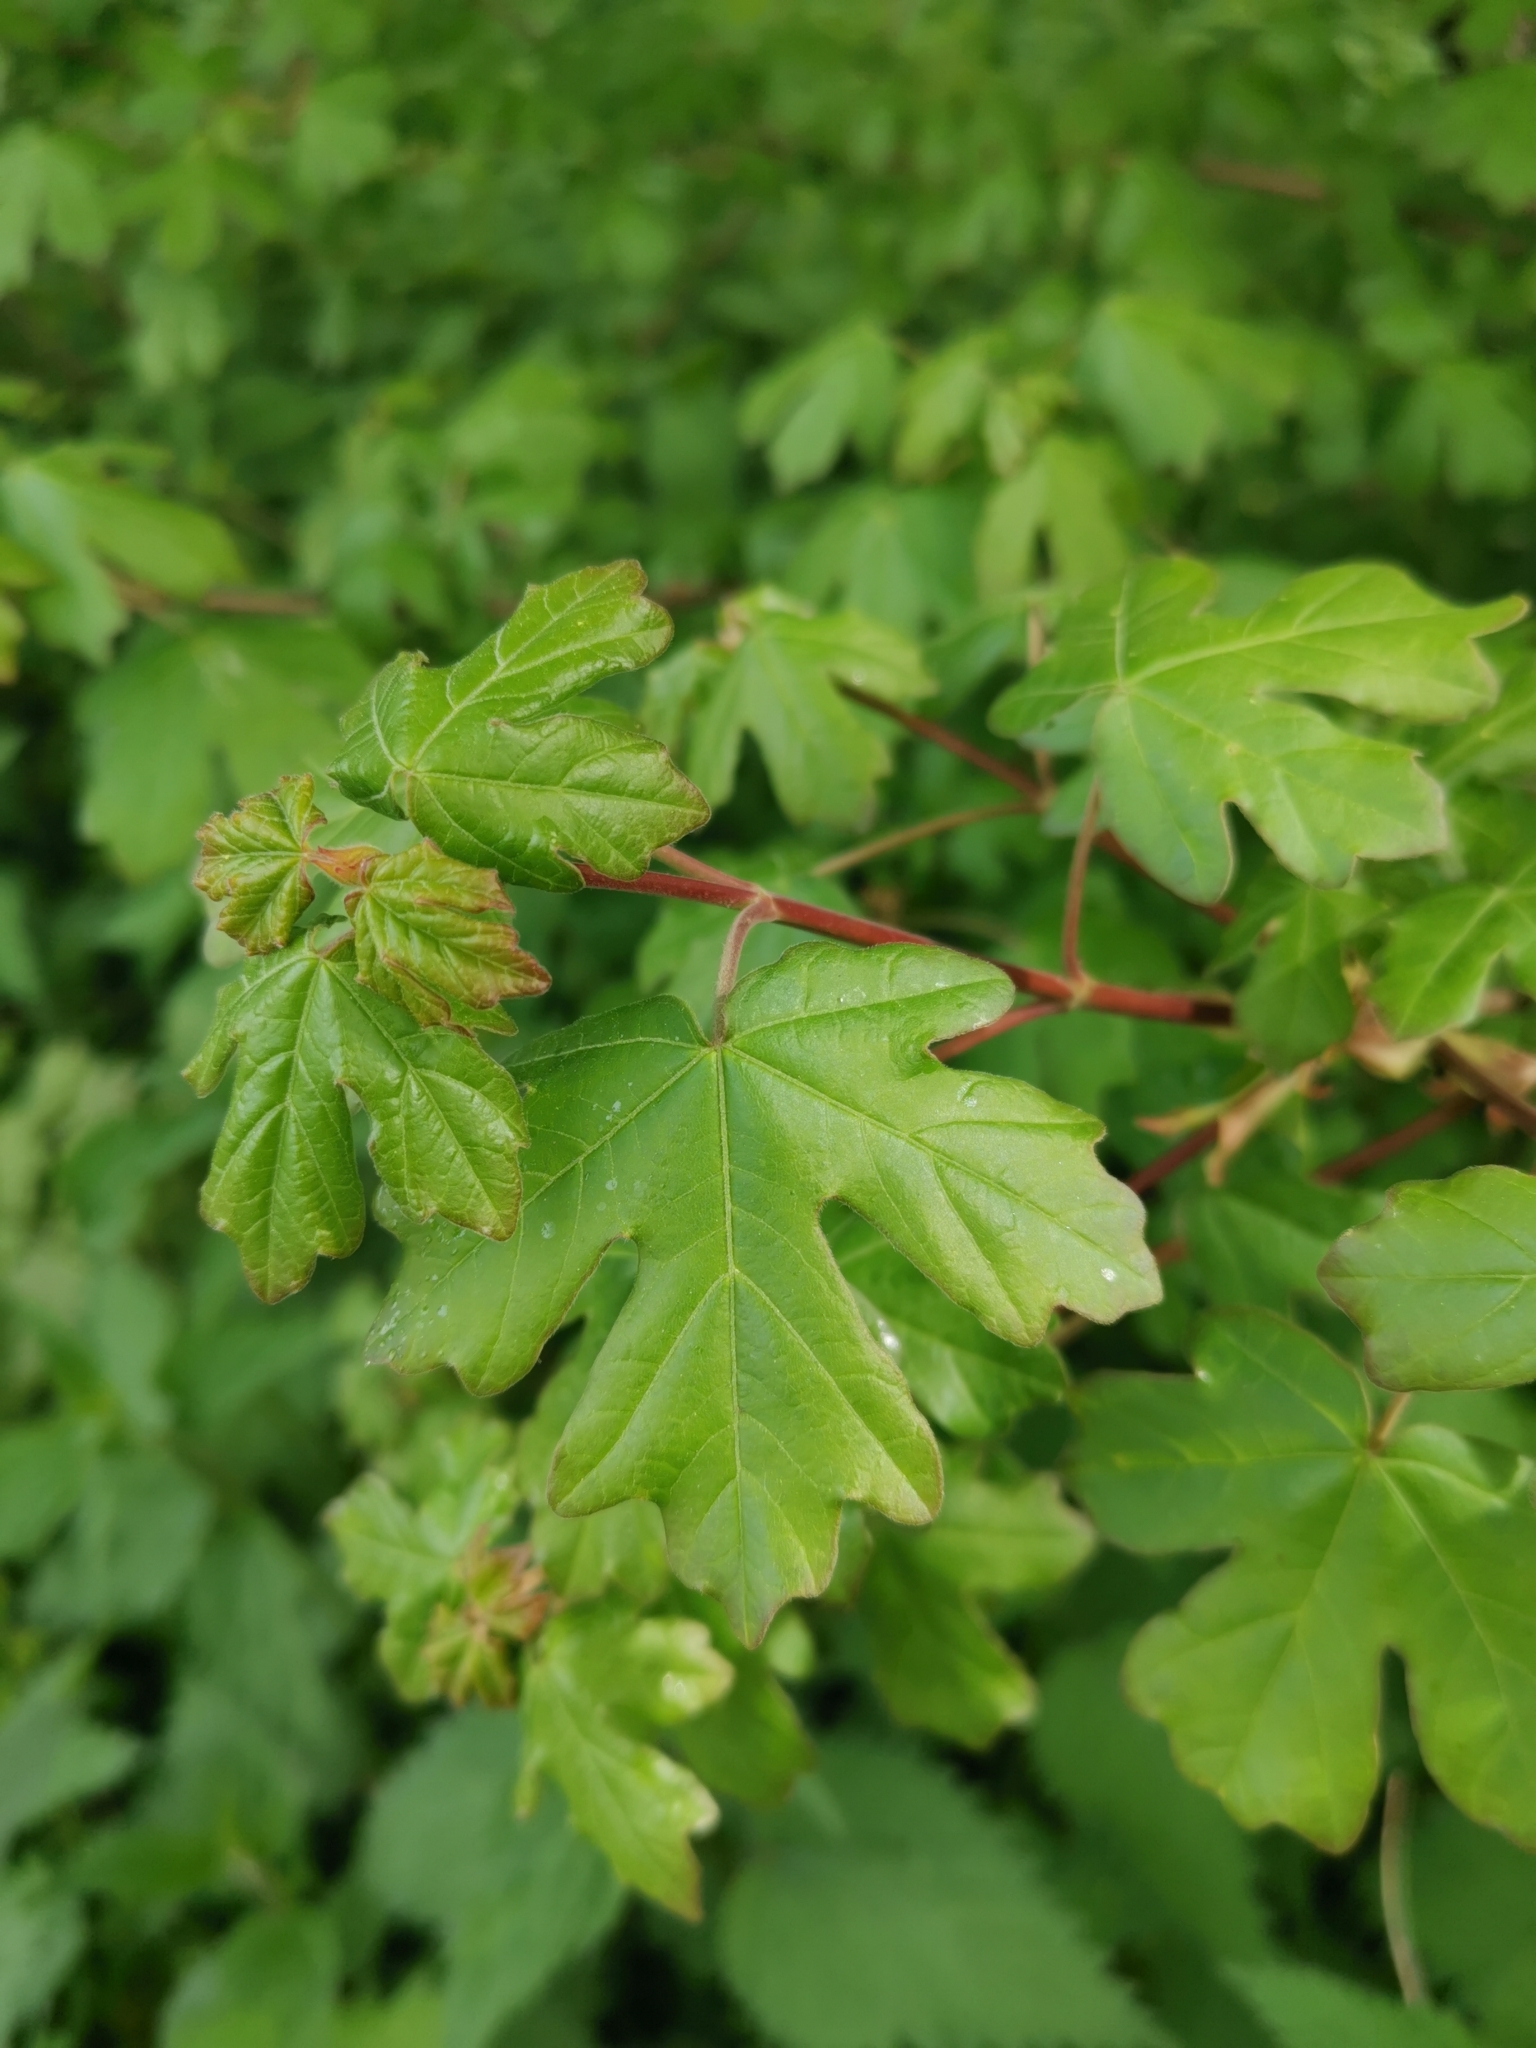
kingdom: Plantae
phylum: Tracheophyta
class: Magnoliopsida
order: Sapindales
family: Sapindaceae
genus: Acer
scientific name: Acer campestre
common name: Field maple
